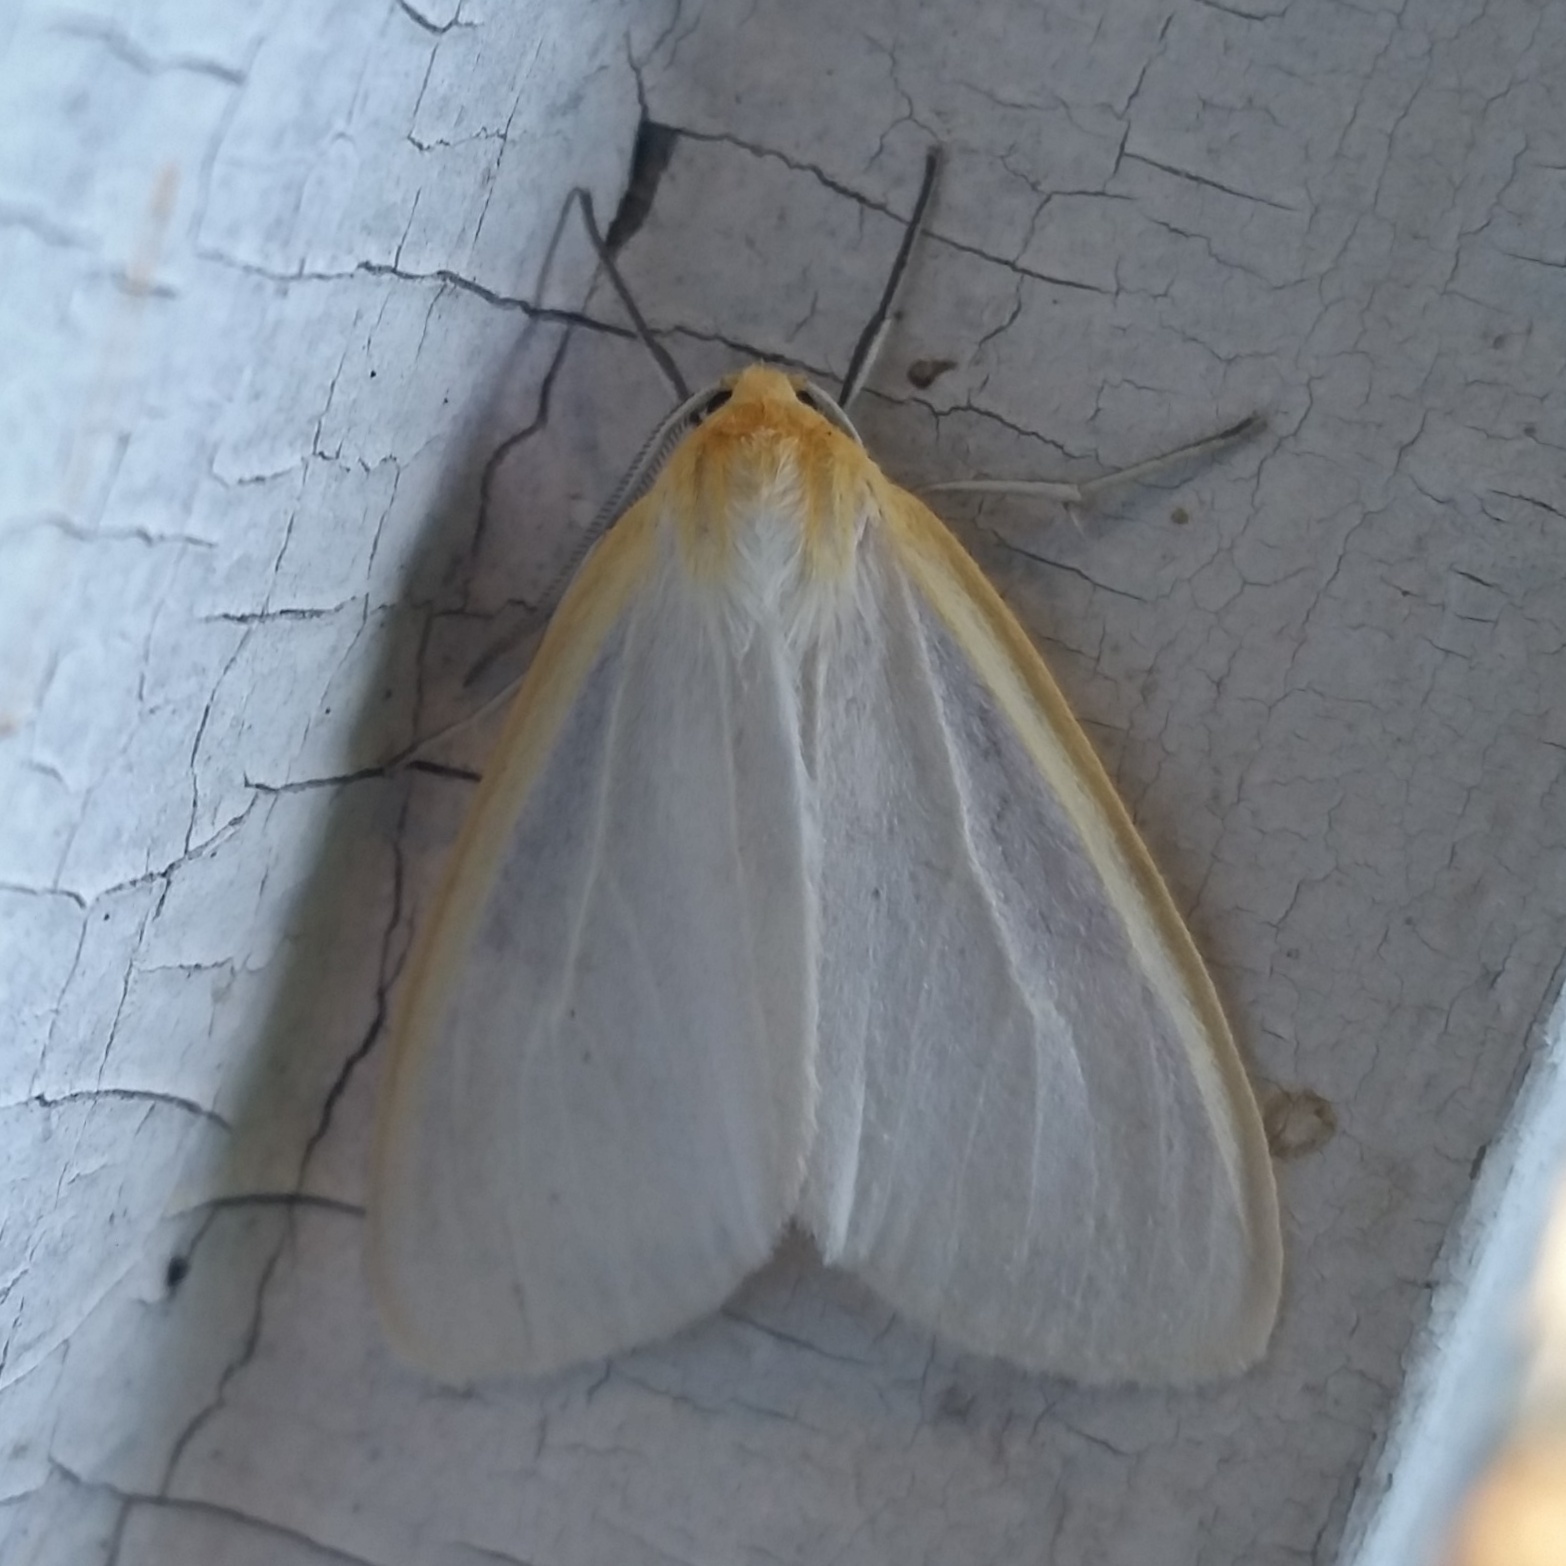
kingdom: Animalia
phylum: Arthropoda
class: Insecta
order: Lepidoptera
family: Erebidae
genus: Cycnia
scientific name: Cycnia tenera
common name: Delicate cycnia moth
